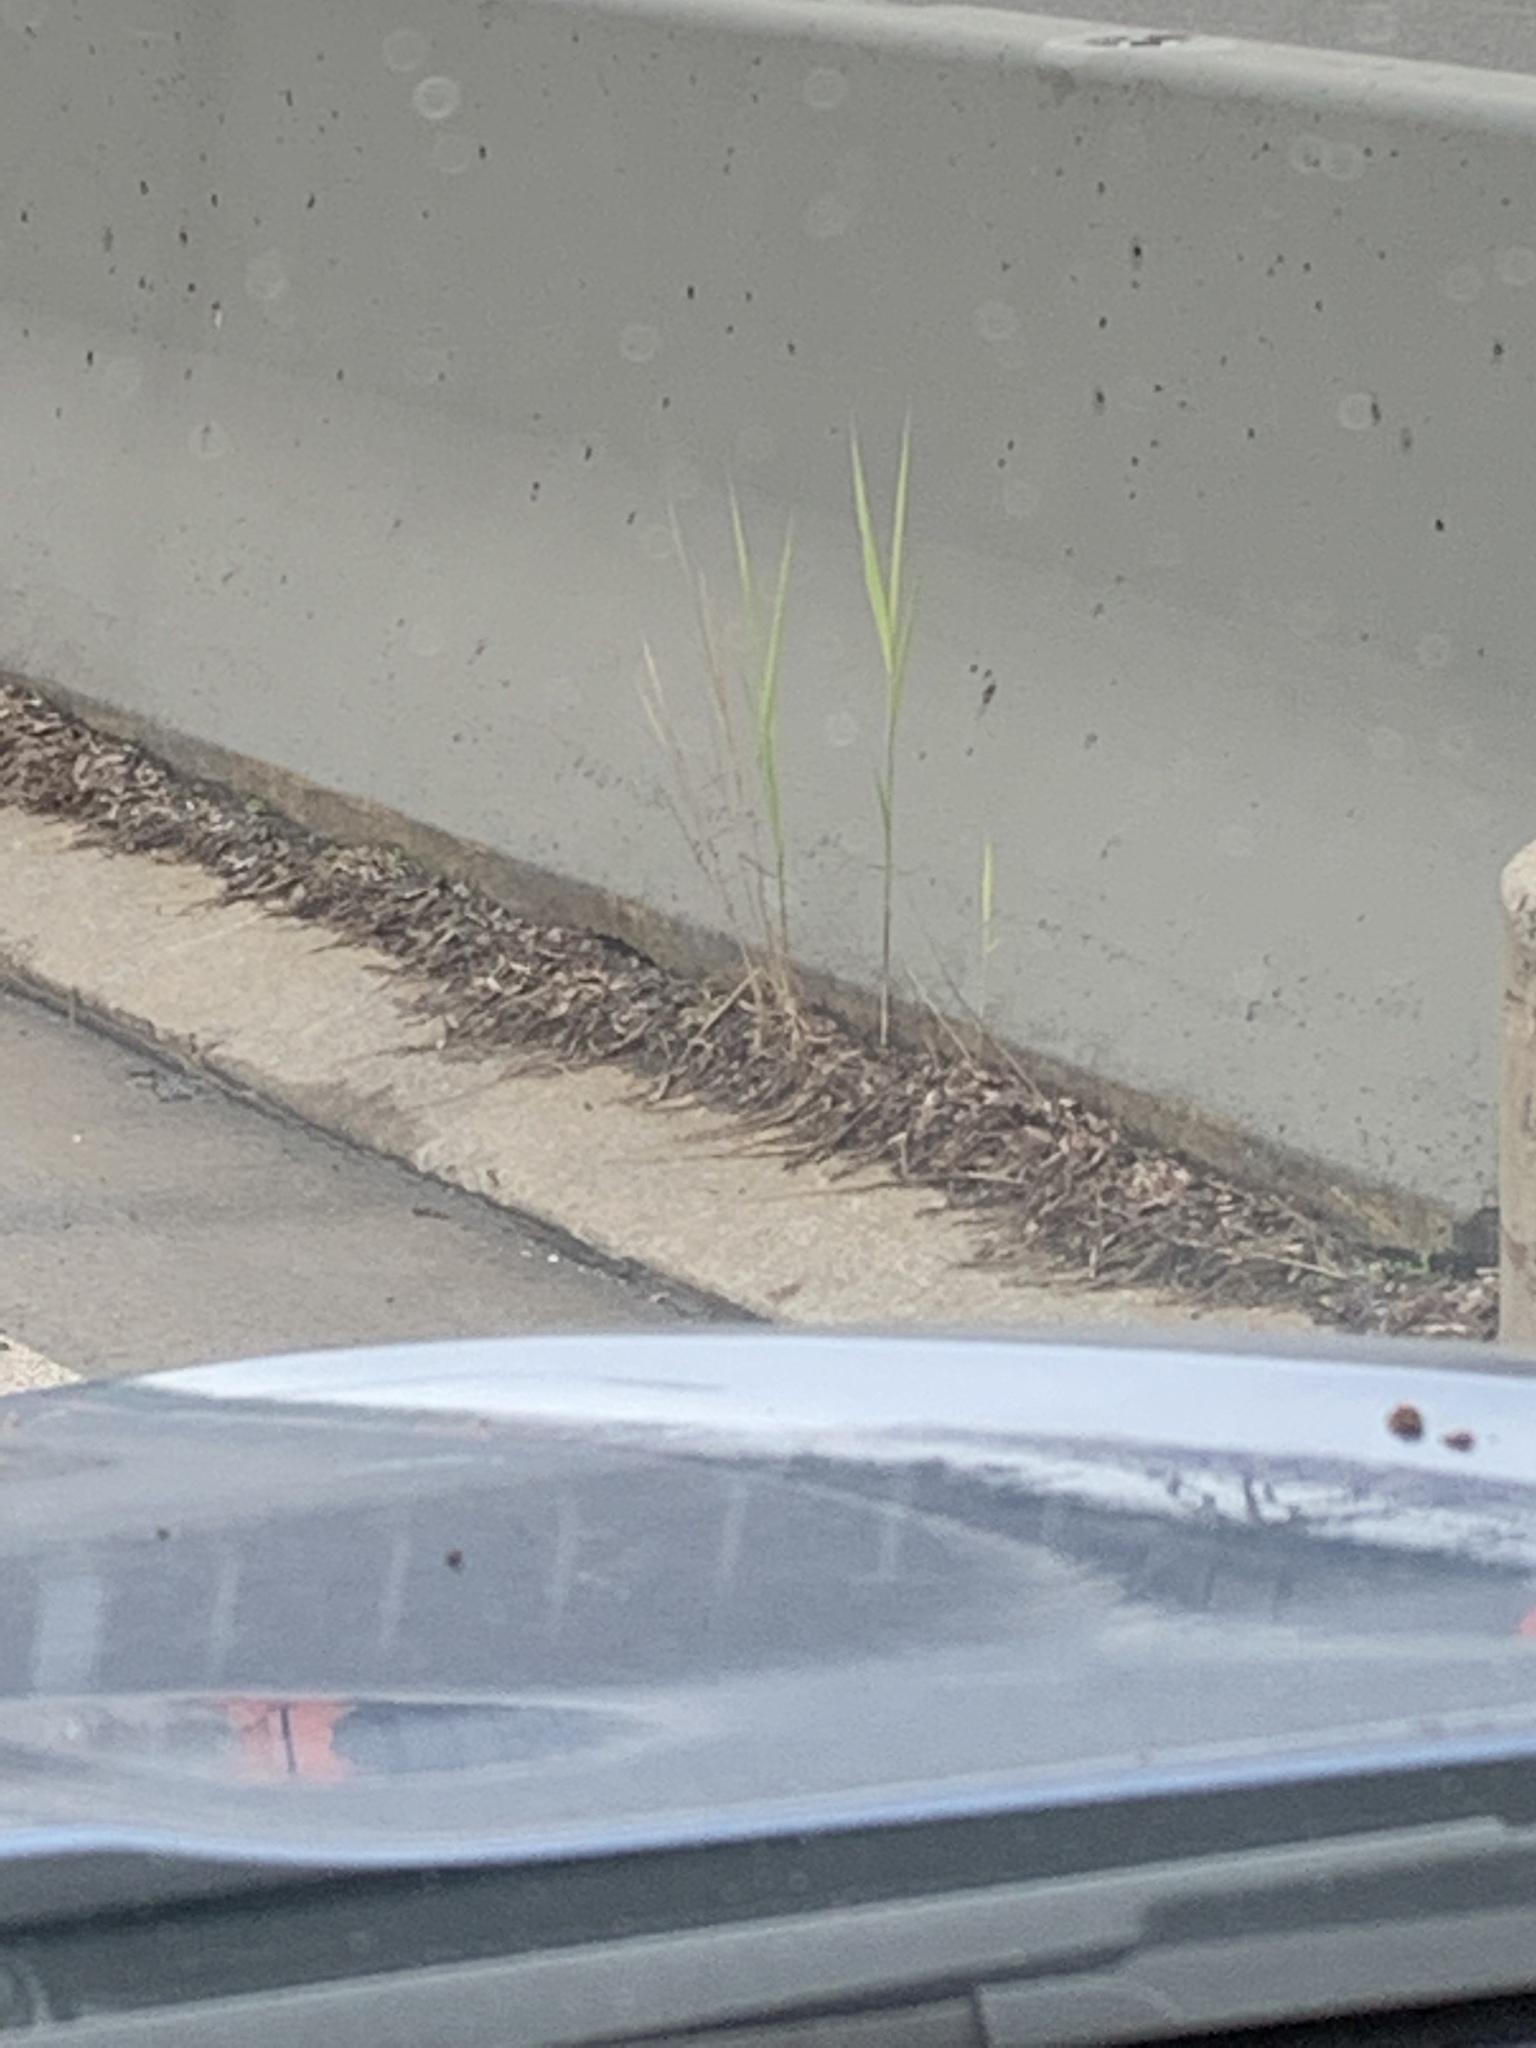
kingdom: Plantae
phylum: Tracheophyta
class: Liliopsida
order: Poales
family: Poaceae
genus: Phragmites
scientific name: Phragmites australis
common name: Common reed
